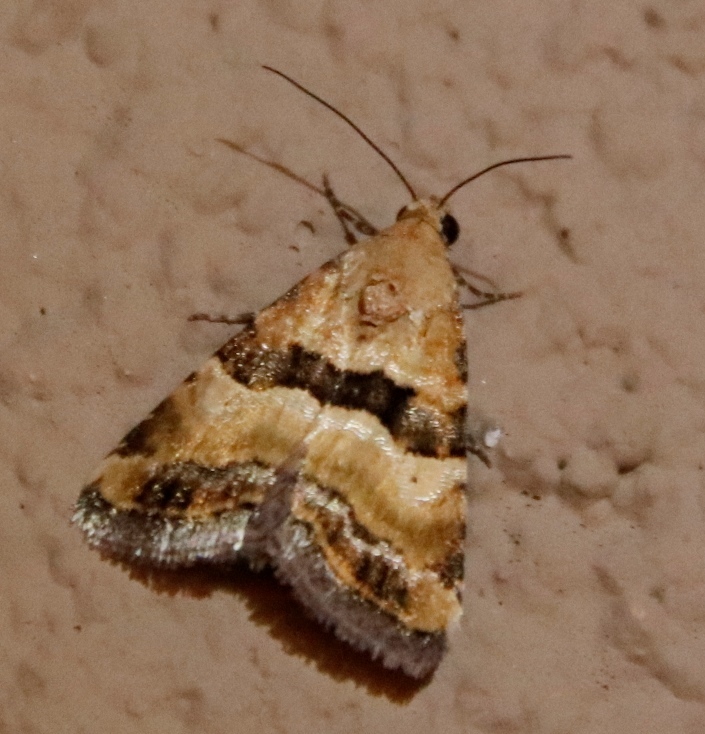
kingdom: Animalia
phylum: Arthropoda
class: Insecta
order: Lepidoptera
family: Noctuidae
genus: Pseudozarba
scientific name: Pseudozarba bipartita
